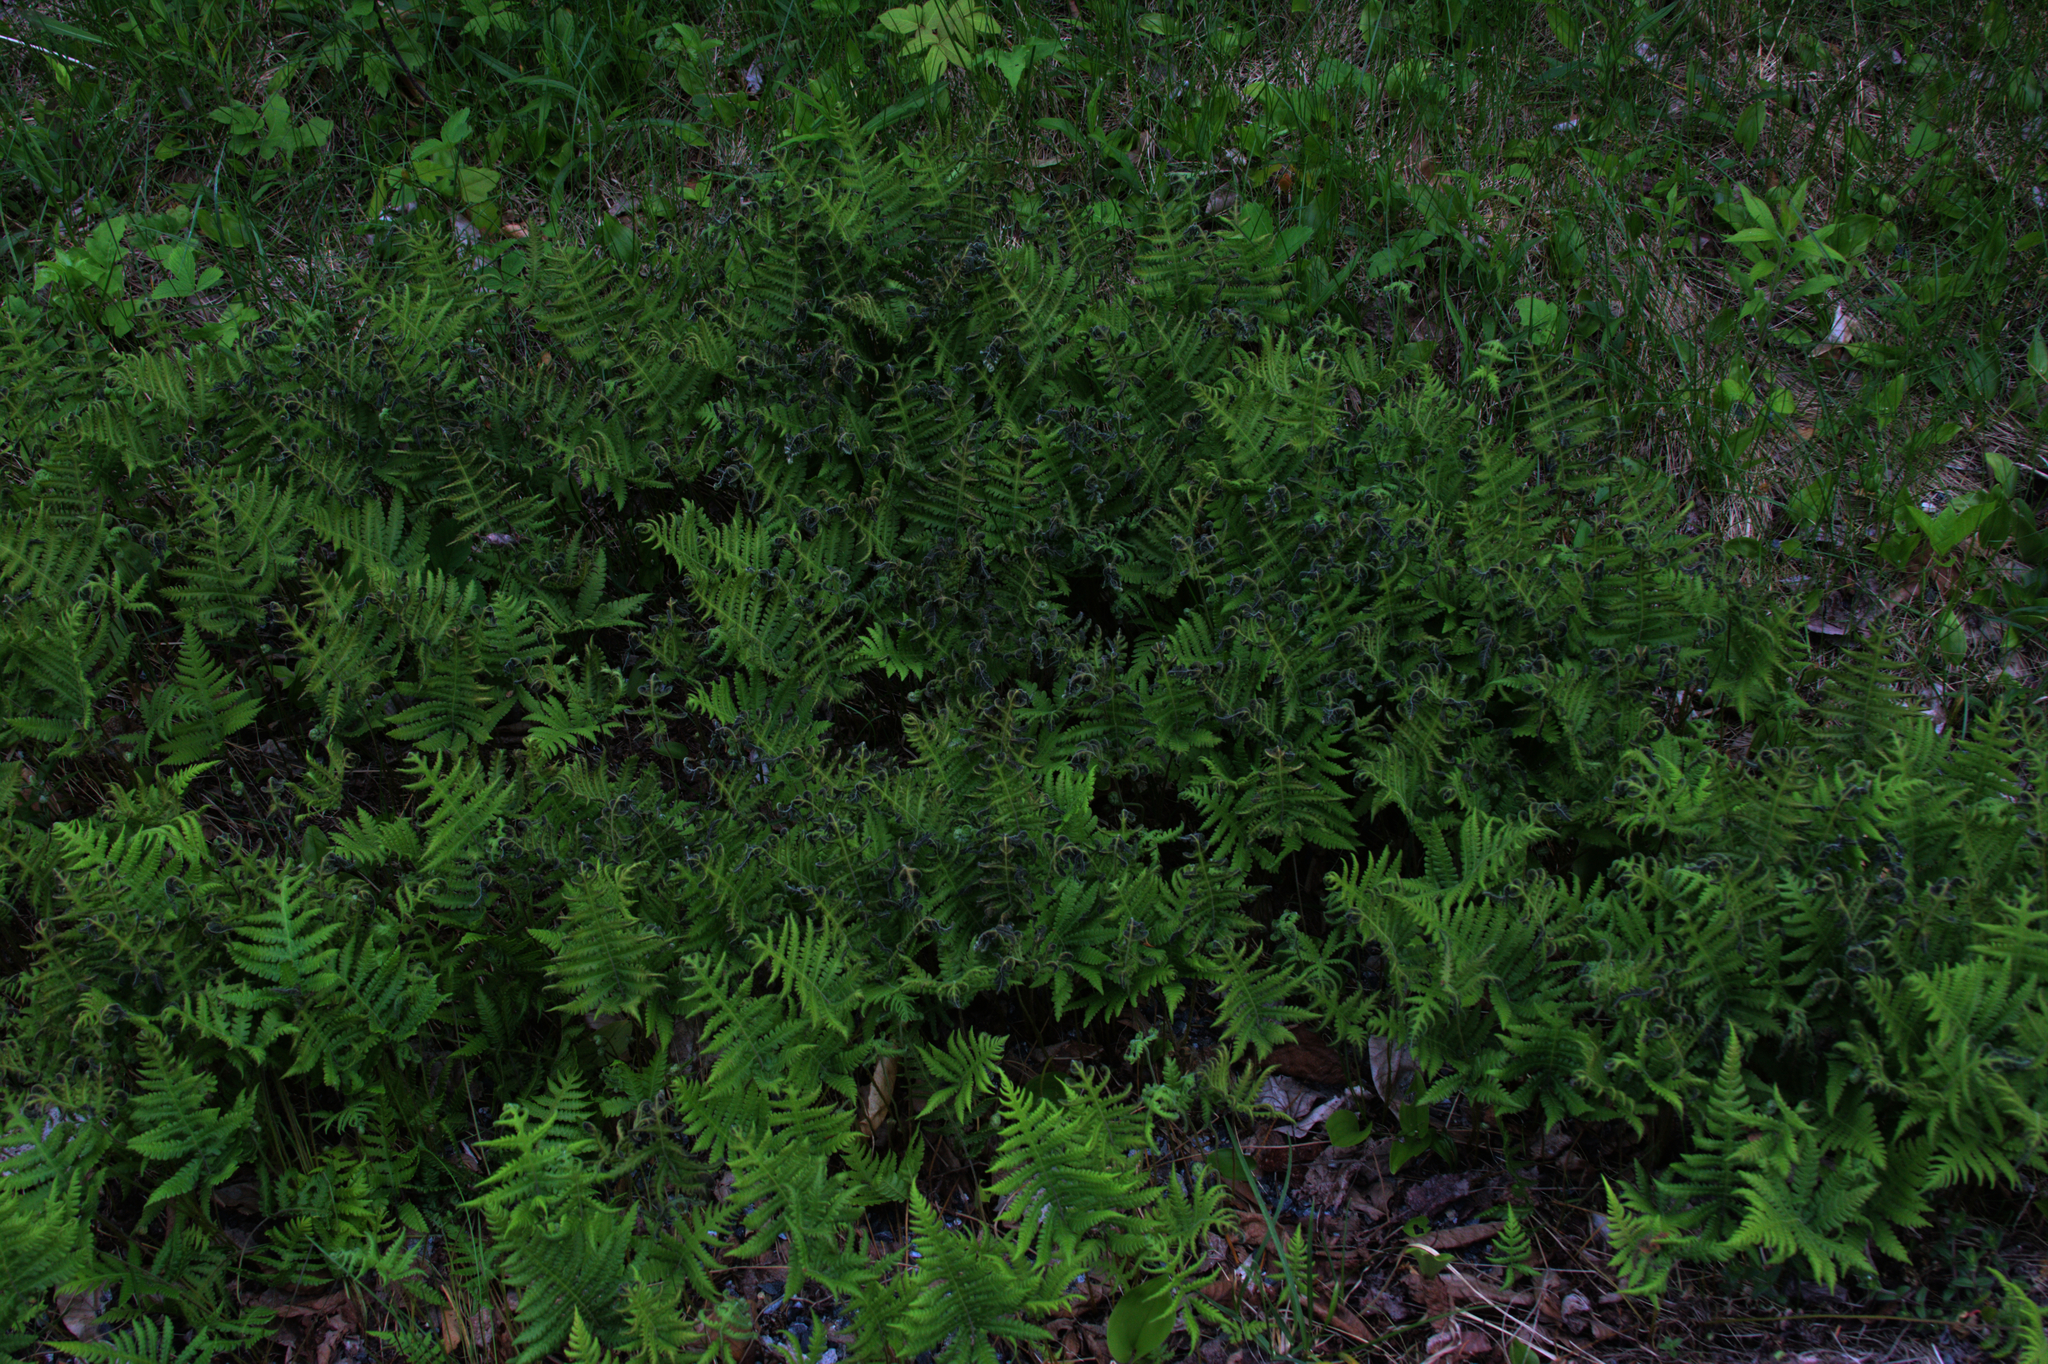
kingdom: Plantae
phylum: Tracheophyta
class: Polypodiopsida
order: Polypodiales
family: Thelypteridaceae
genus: Phegopteris
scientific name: Phegopteris connectilis
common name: Beech fern
